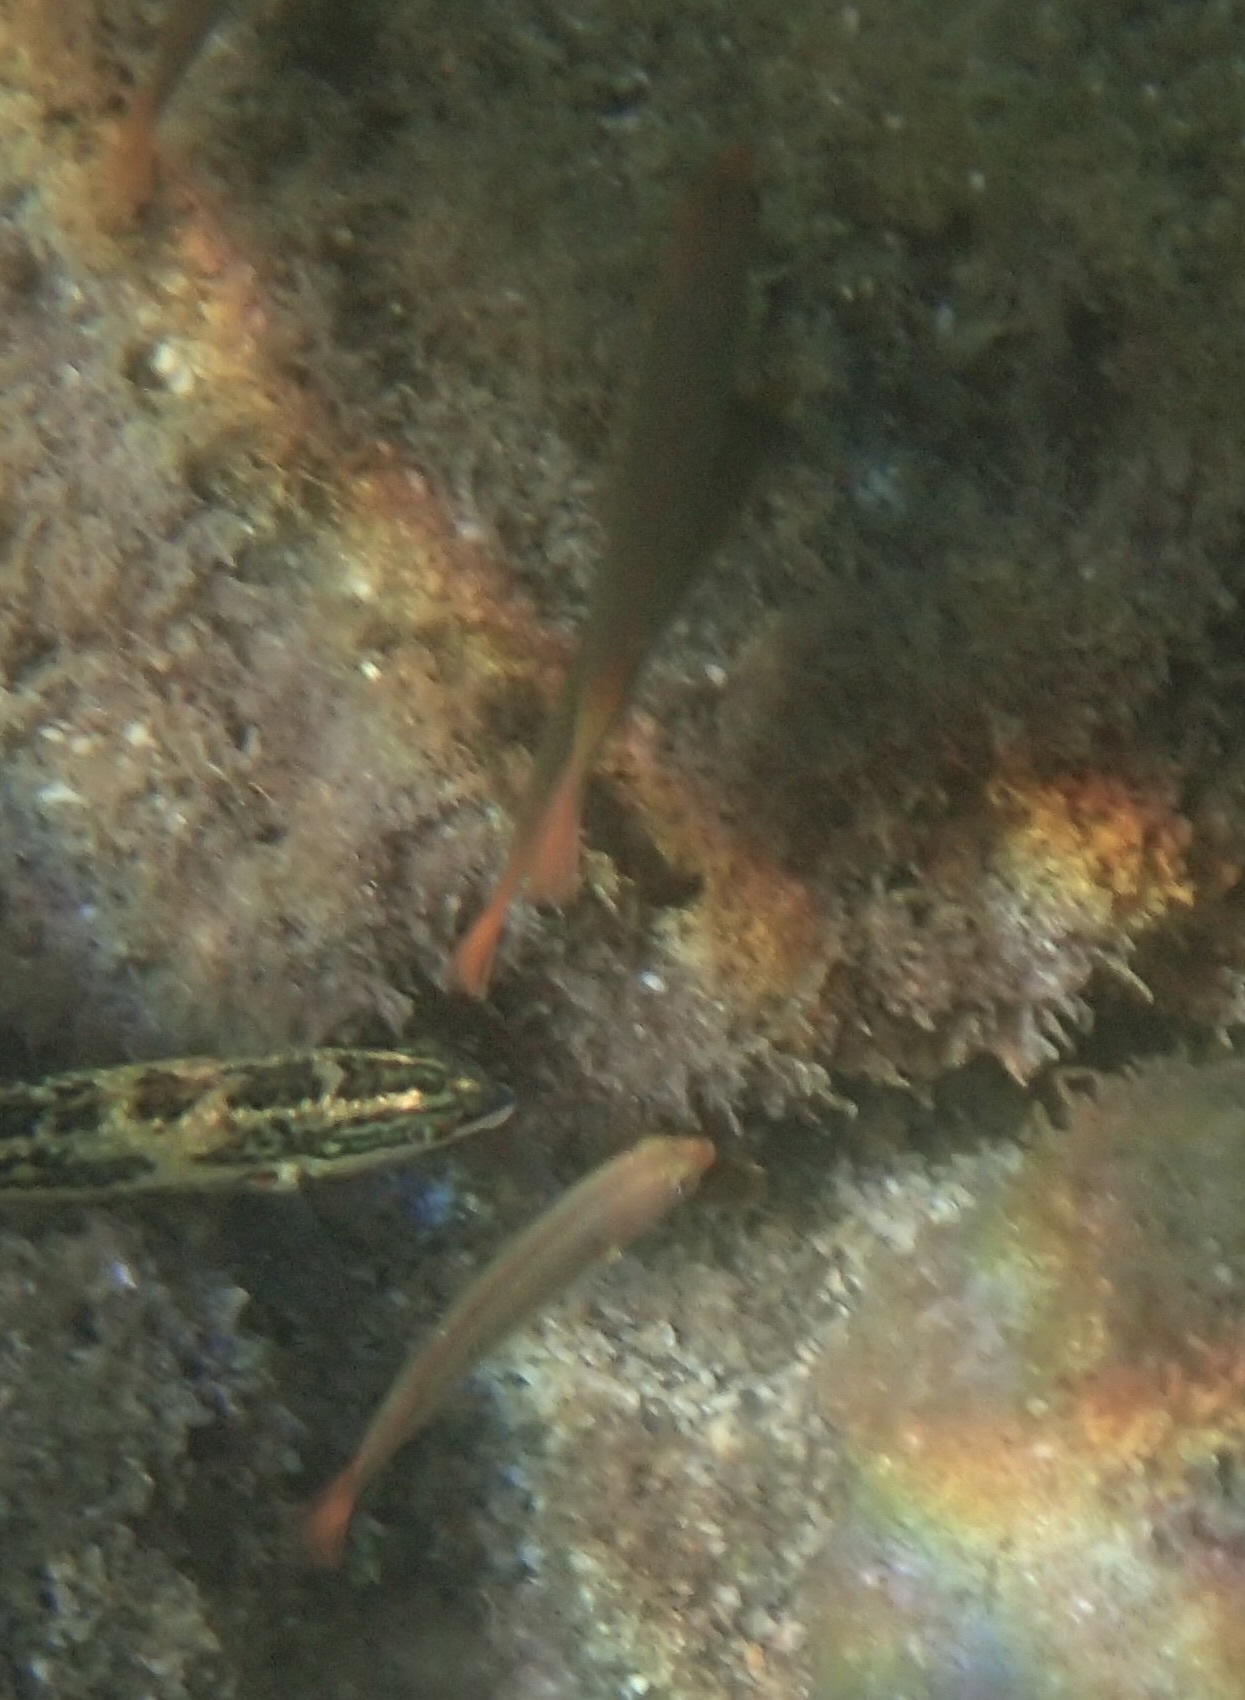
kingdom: Animalia
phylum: Chordata
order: Perciformes
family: Labridae
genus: Halichoeres
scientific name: Halichoeres dispilus
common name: Chameleon wrasse
